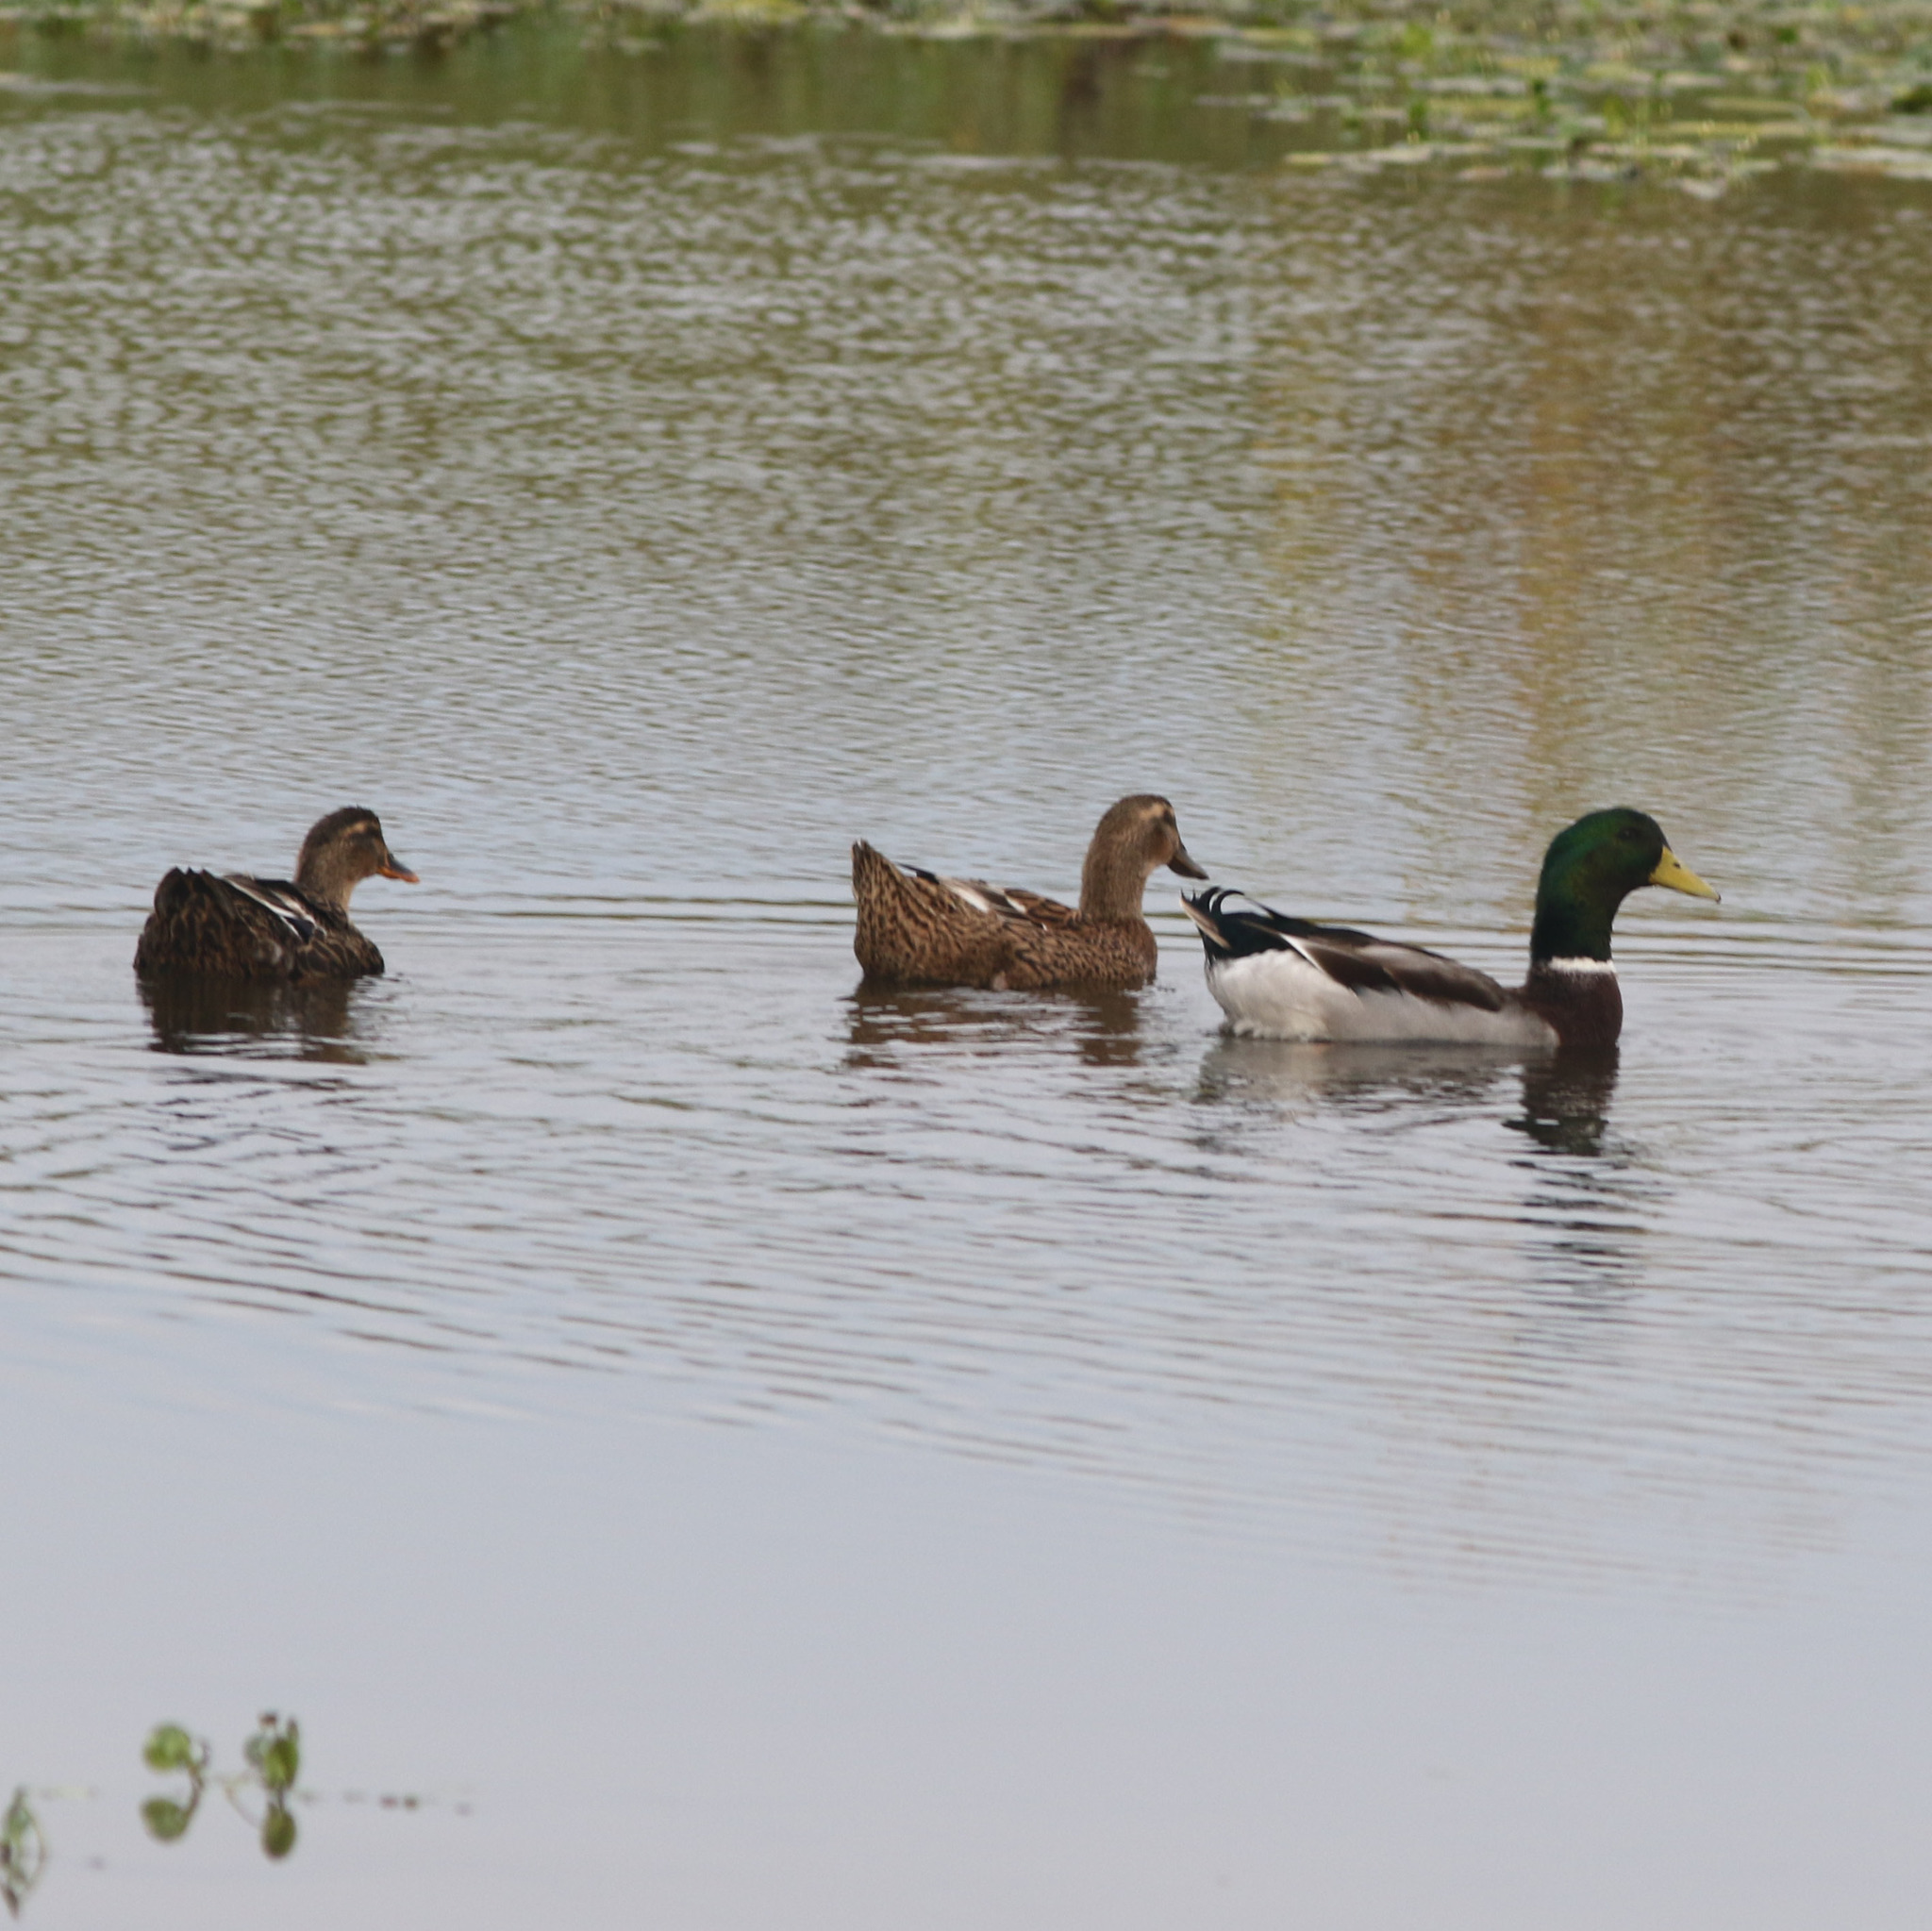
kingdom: Animalia
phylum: Chordata
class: Aves
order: Anseriformes
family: Anatidae
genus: Anas
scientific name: Anas platyrhynchos
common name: Mallard
